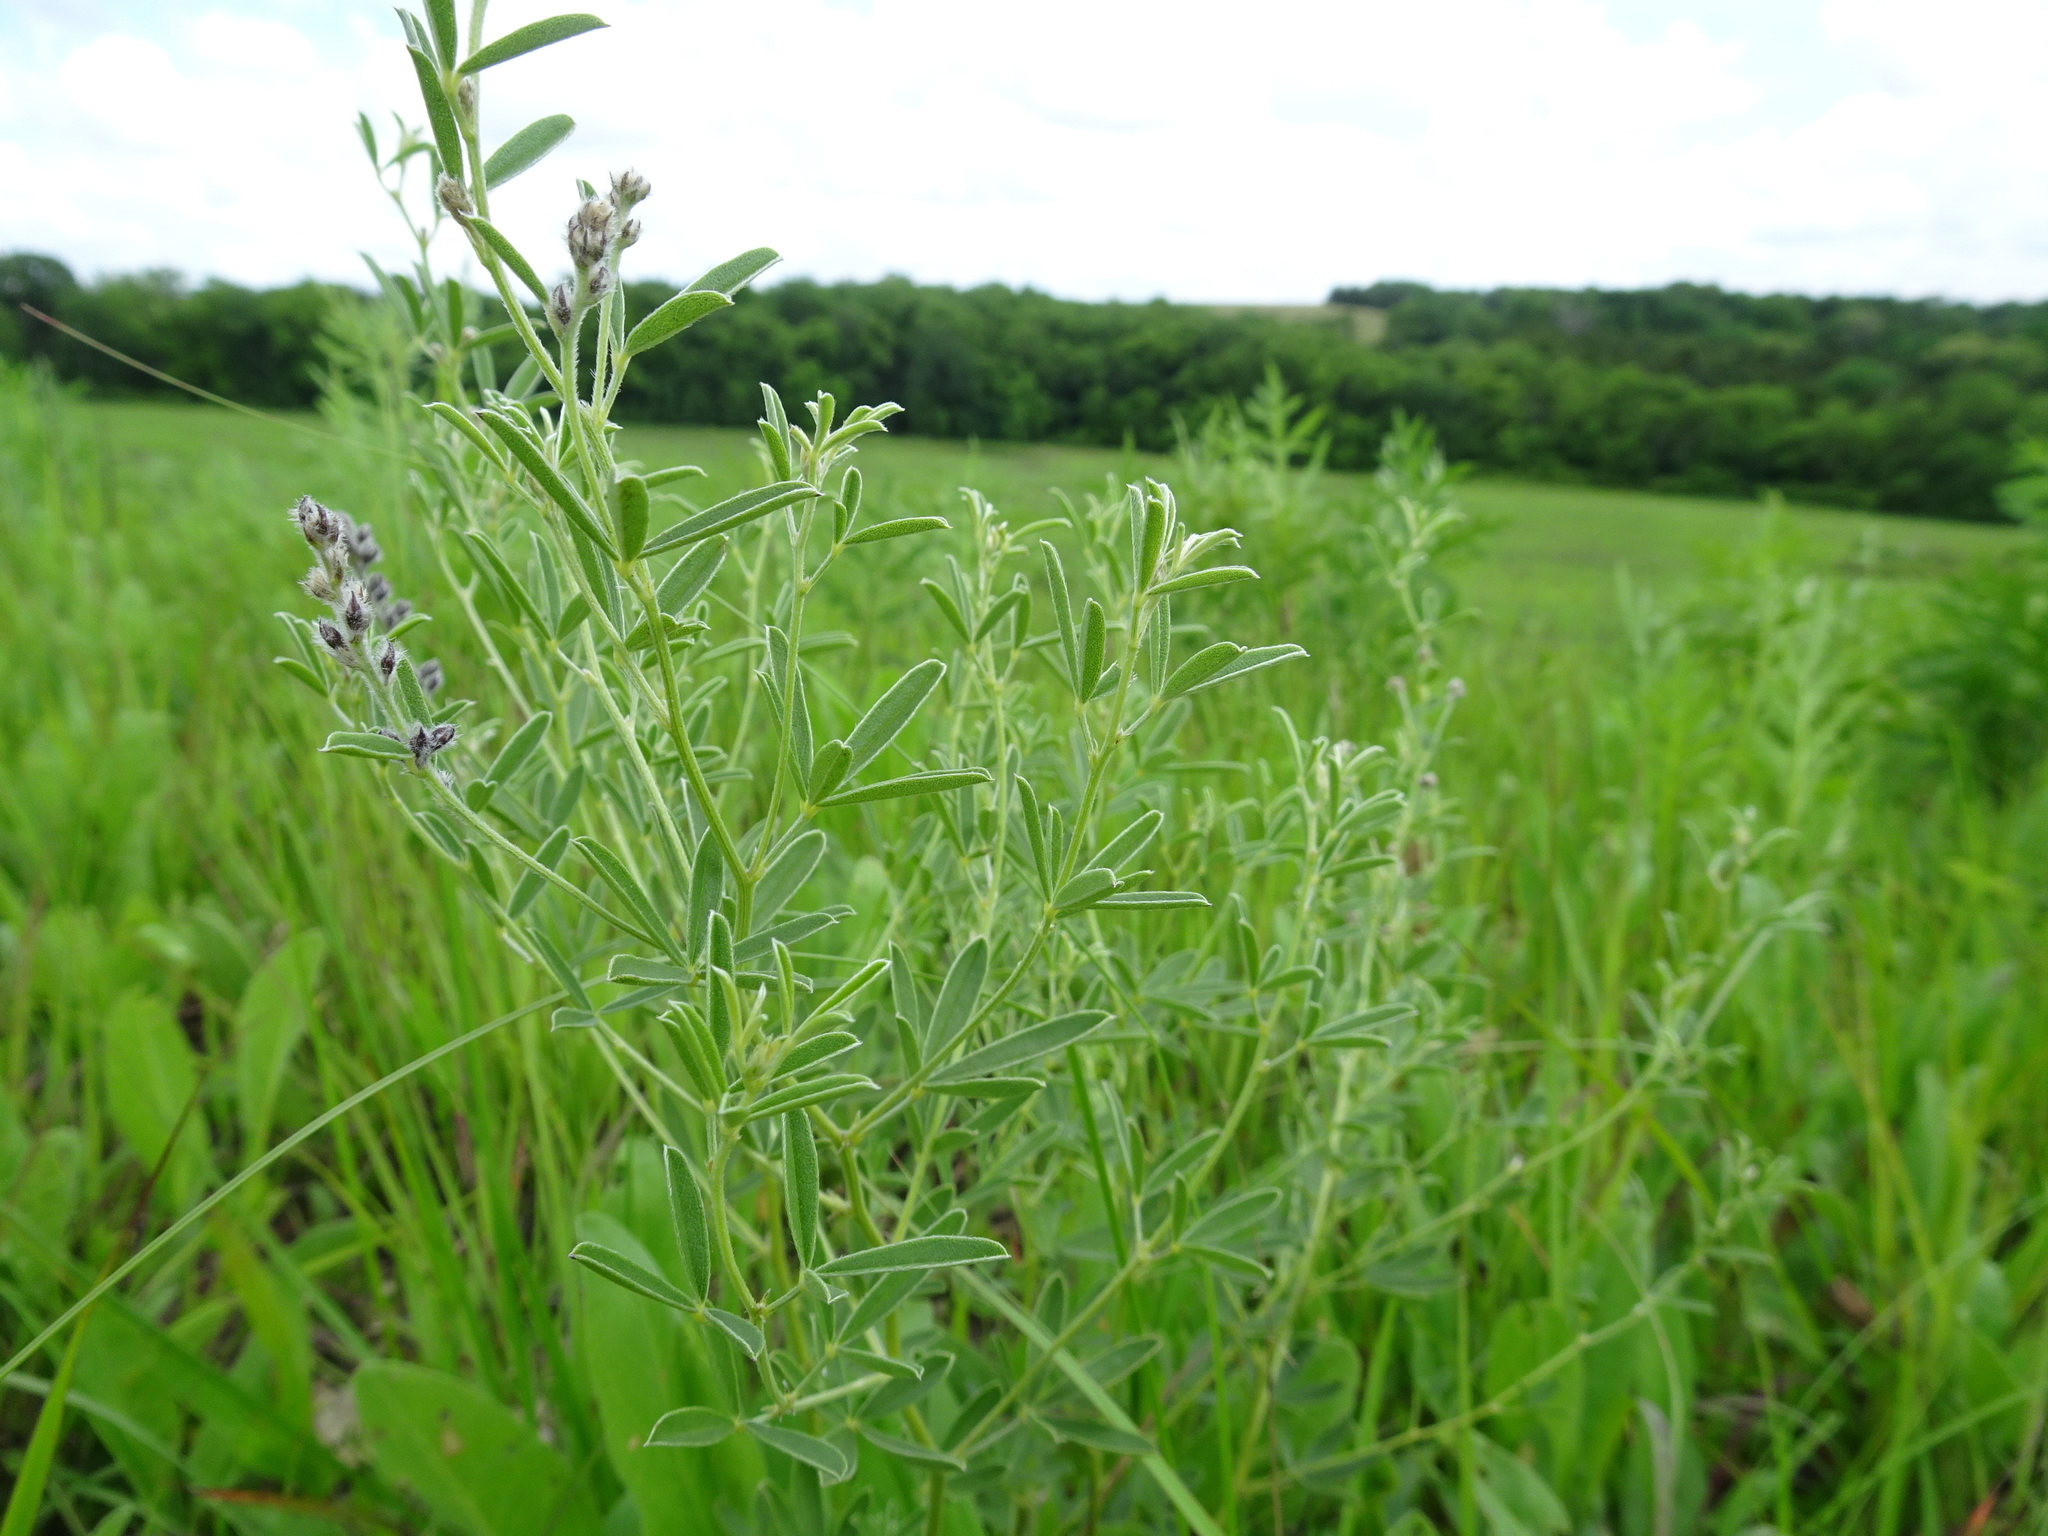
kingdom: Plantae
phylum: Tracheophyta
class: Magnoliopsida
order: Fabales
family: Fabaceae
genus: Pediomelum
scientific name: Pediomelum tenuiflorum
